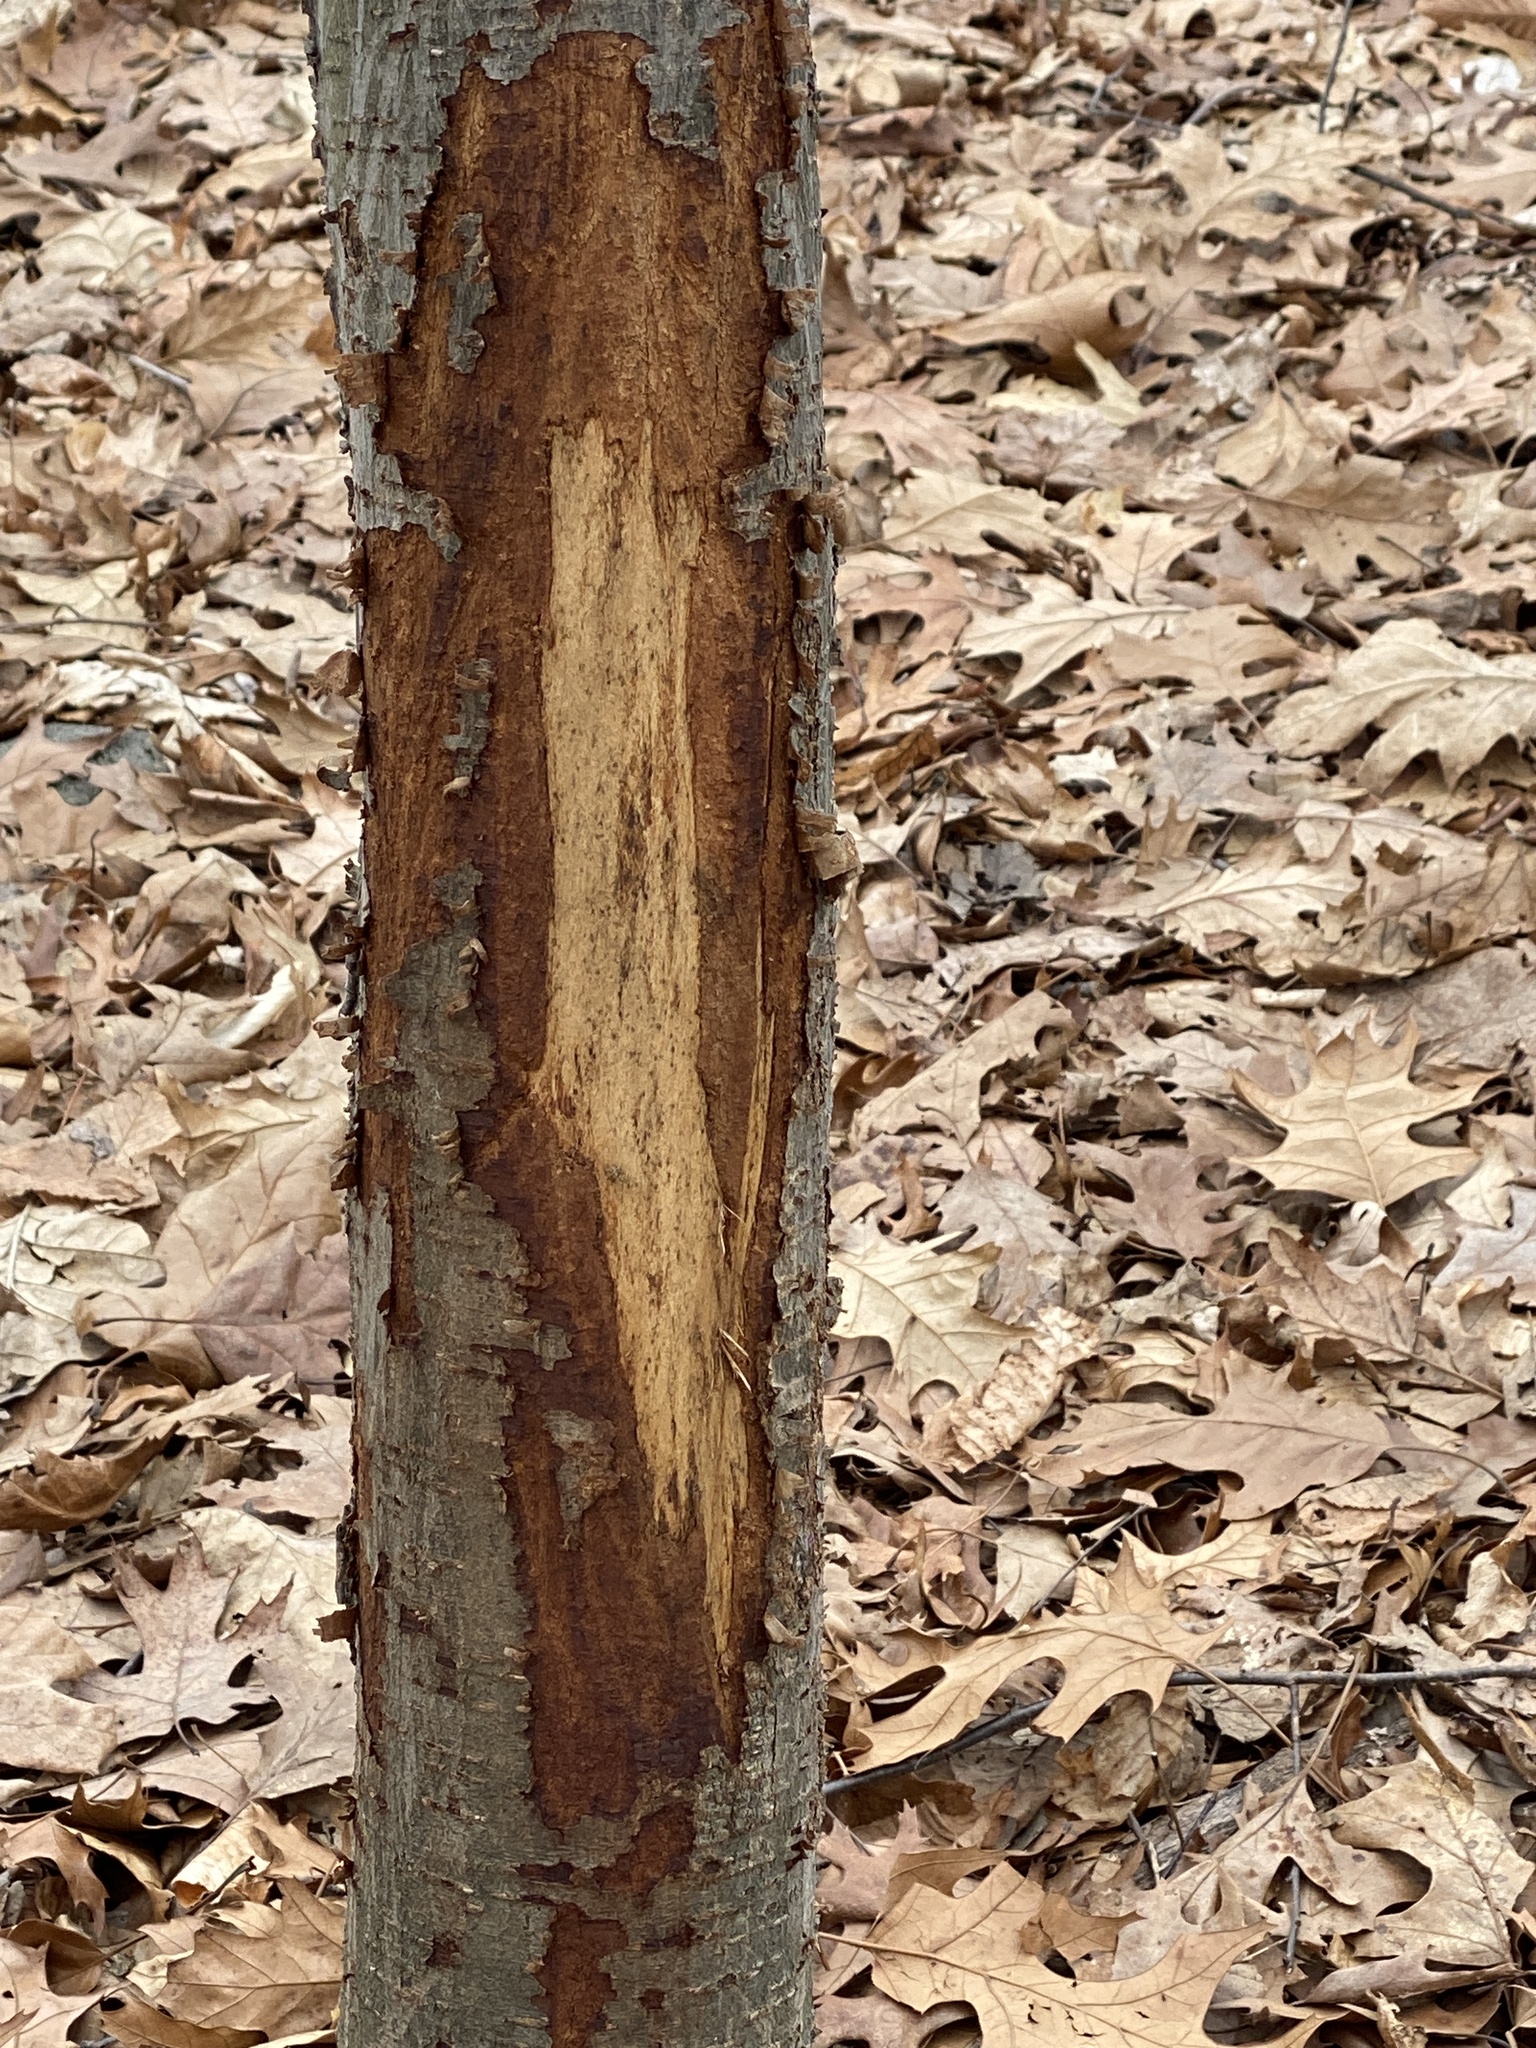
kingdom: Animalia
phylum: Chordata
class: Mammalia
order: Artiodactyla
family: Cervidae
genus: Odocoileus
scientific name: Odocoileus virginianus
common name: White-tailed deer
